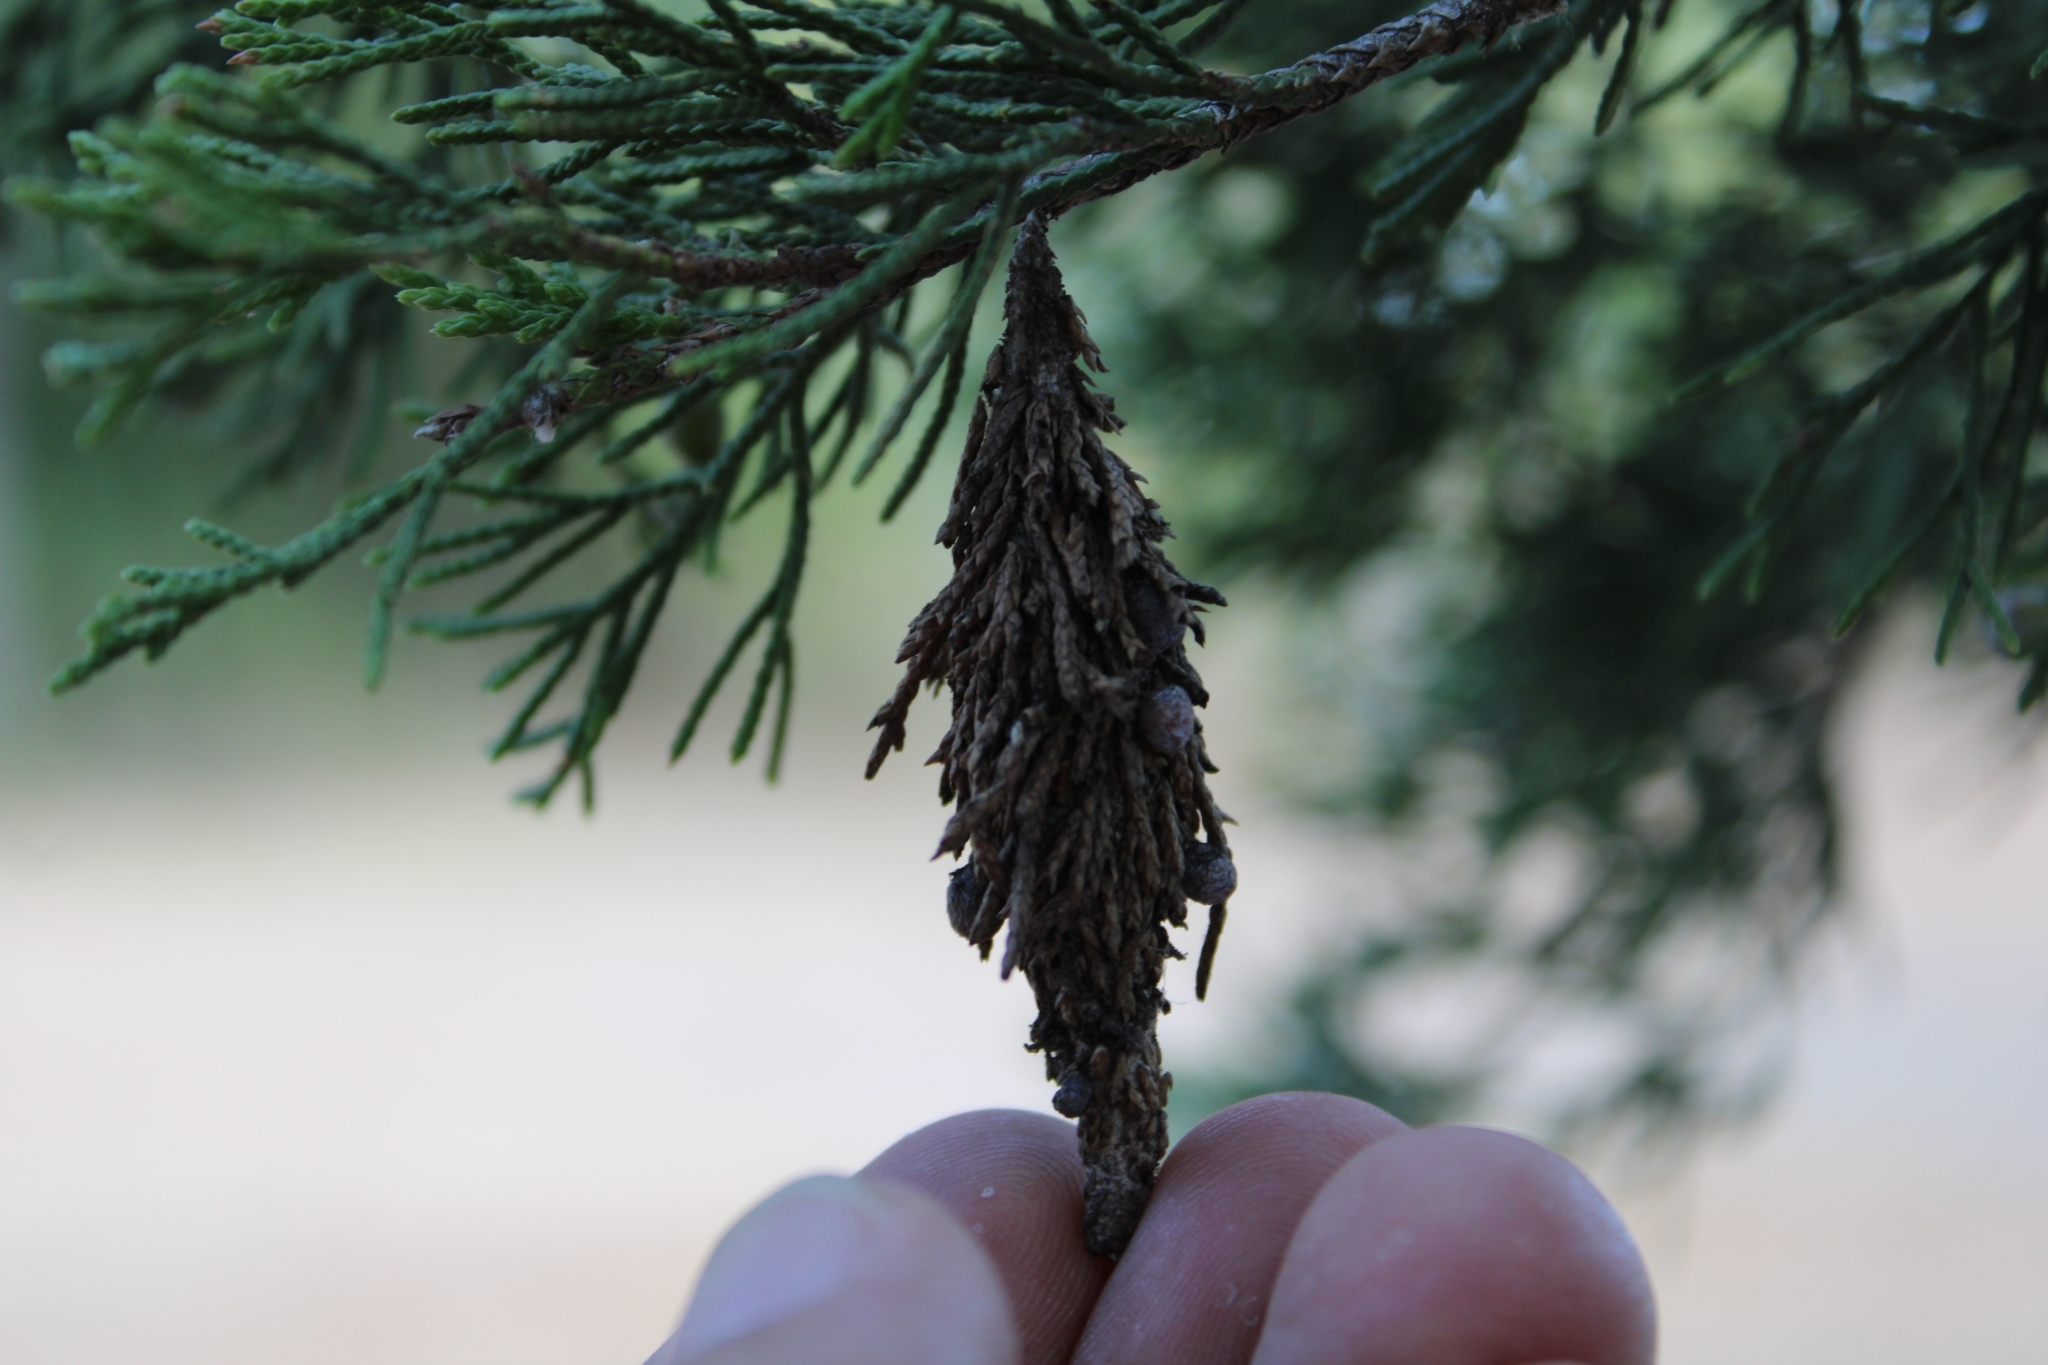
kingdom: Animalia
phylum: Arthropoda
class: Insecta
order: Lepidoptera
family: Psychidae
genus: Thyridopteryx
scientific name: Thyridopteryx ephemeraeformis
